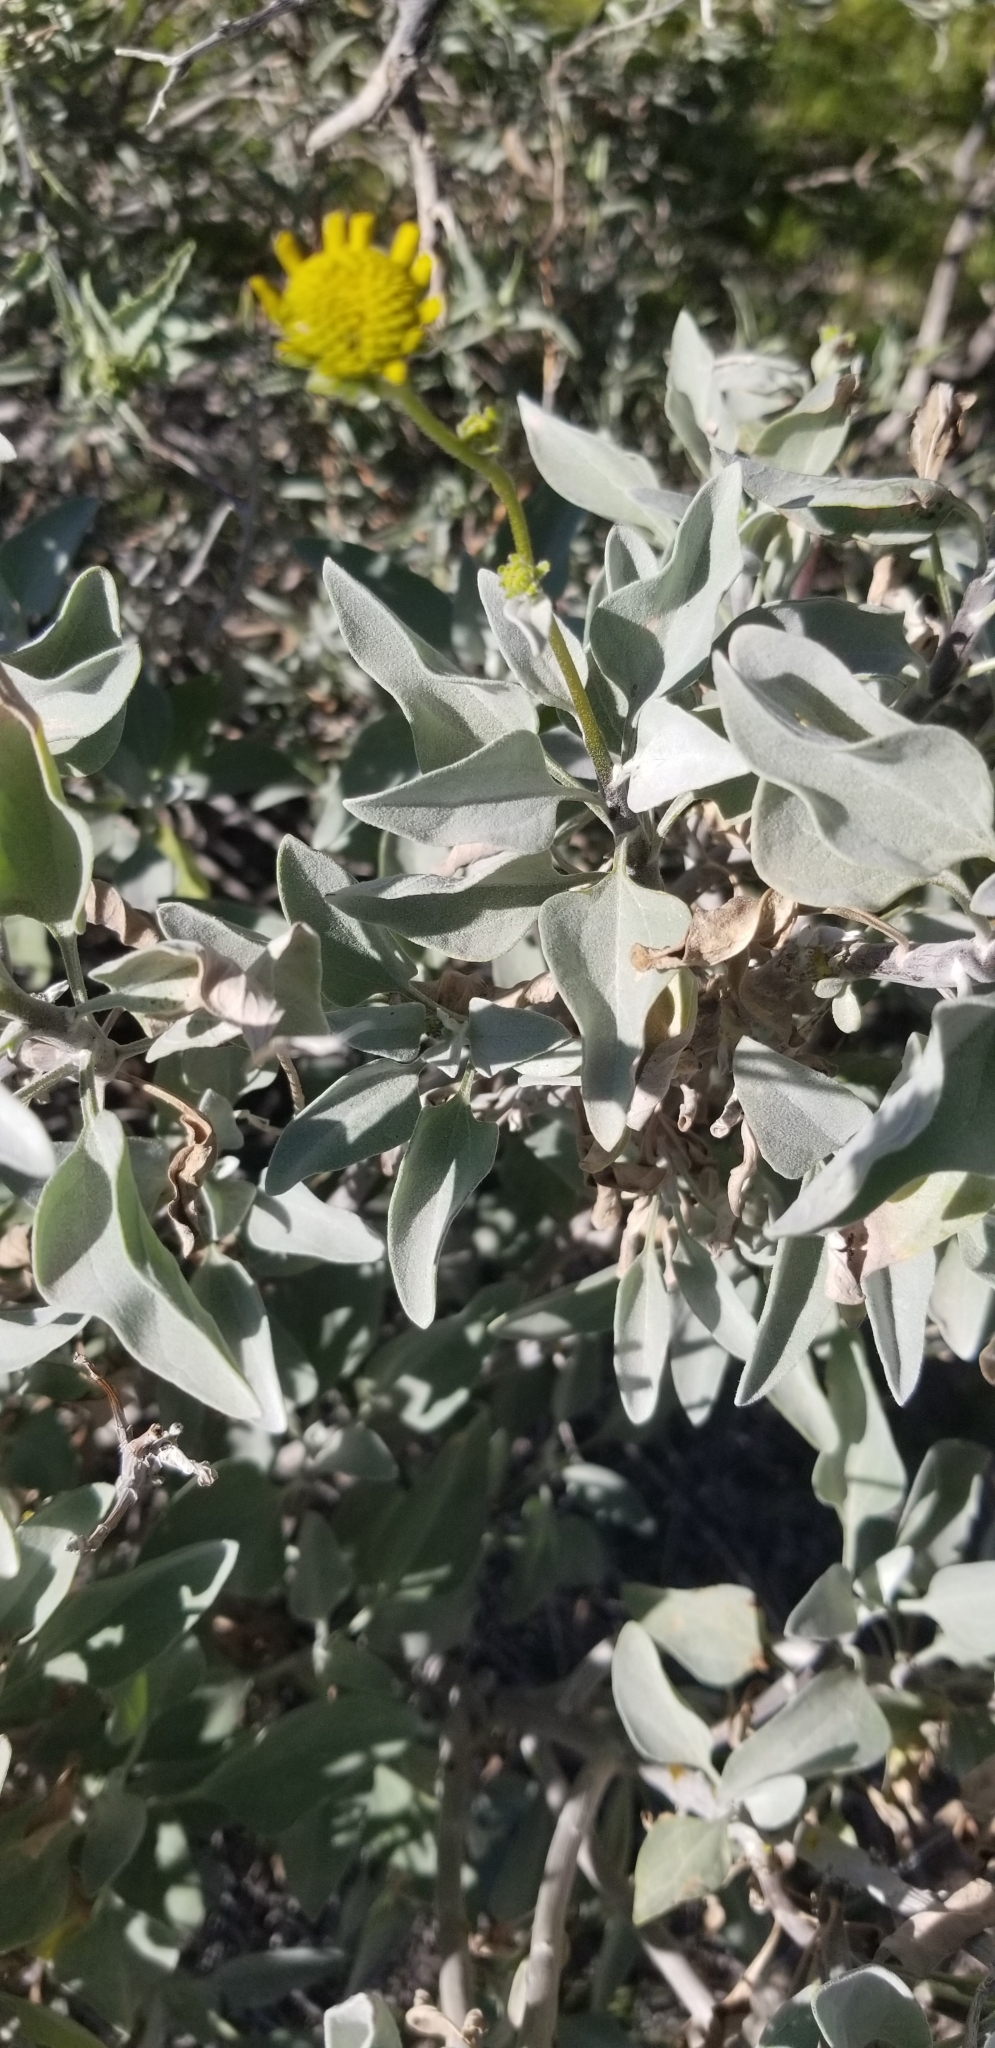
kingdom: Plantae
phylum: Tracheophyta
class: Magnoliopsida
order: Asterales
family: Asteraceae
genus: Encelia
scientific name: Encelia farinosa
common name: Brittlebush
